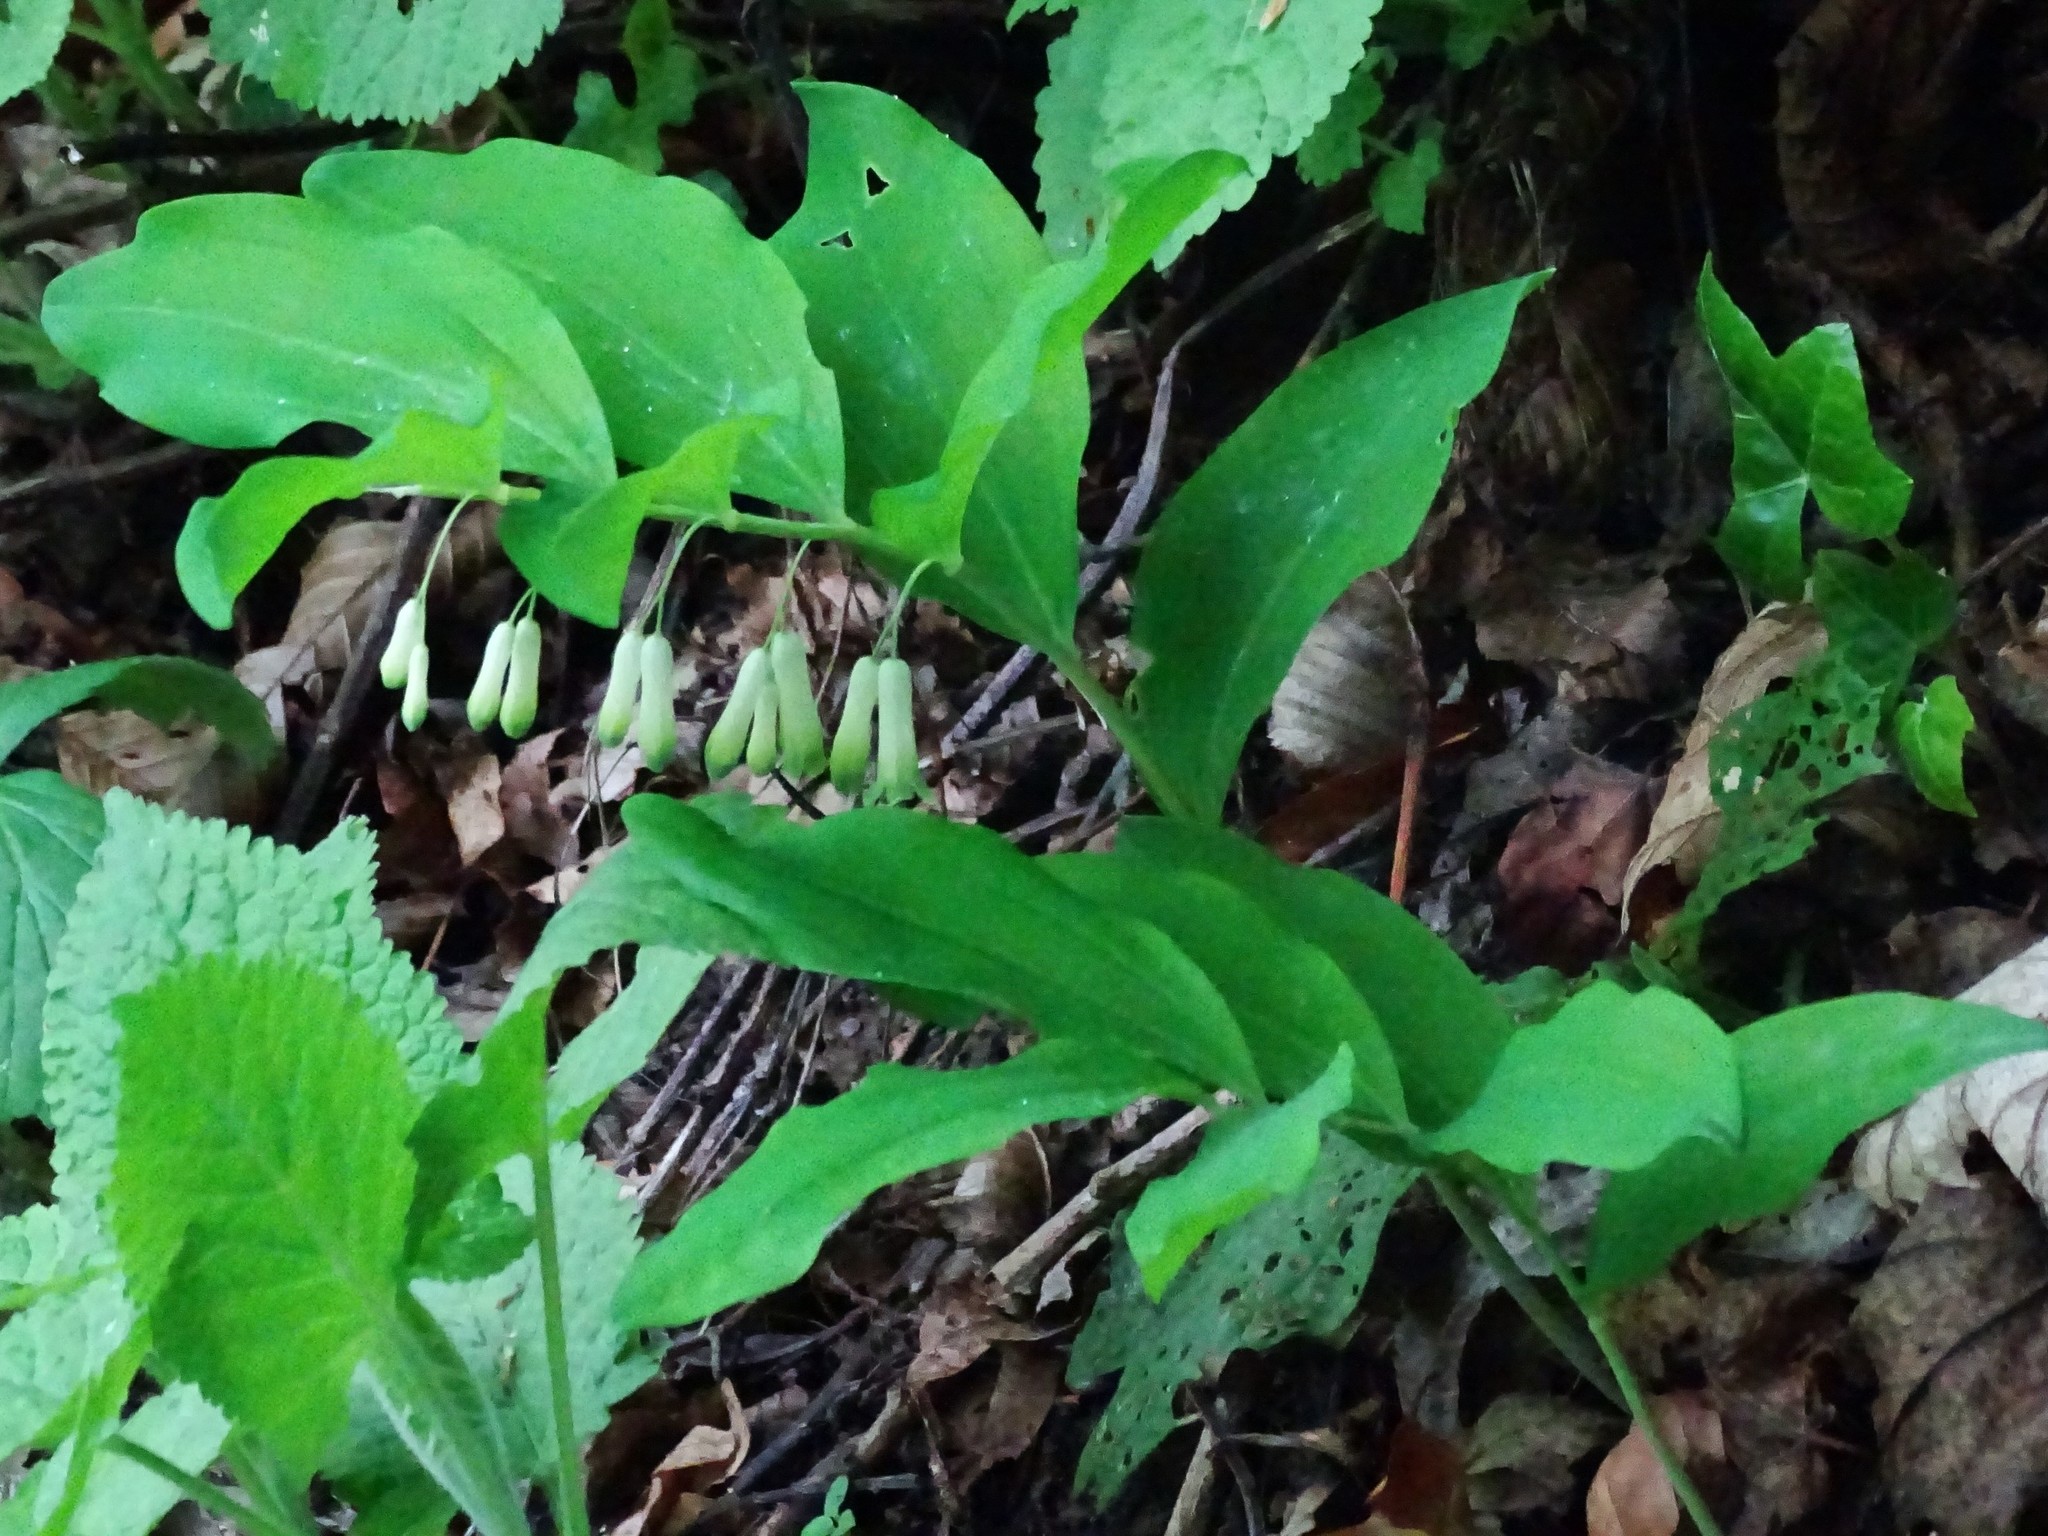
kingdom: Plantae
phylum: Tracheophyta
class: Liliopsida
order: Asparagales
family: Asparagaceae
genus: Polygonatum
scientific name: Polygonatum multiflorum
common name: Solomon's-seal
